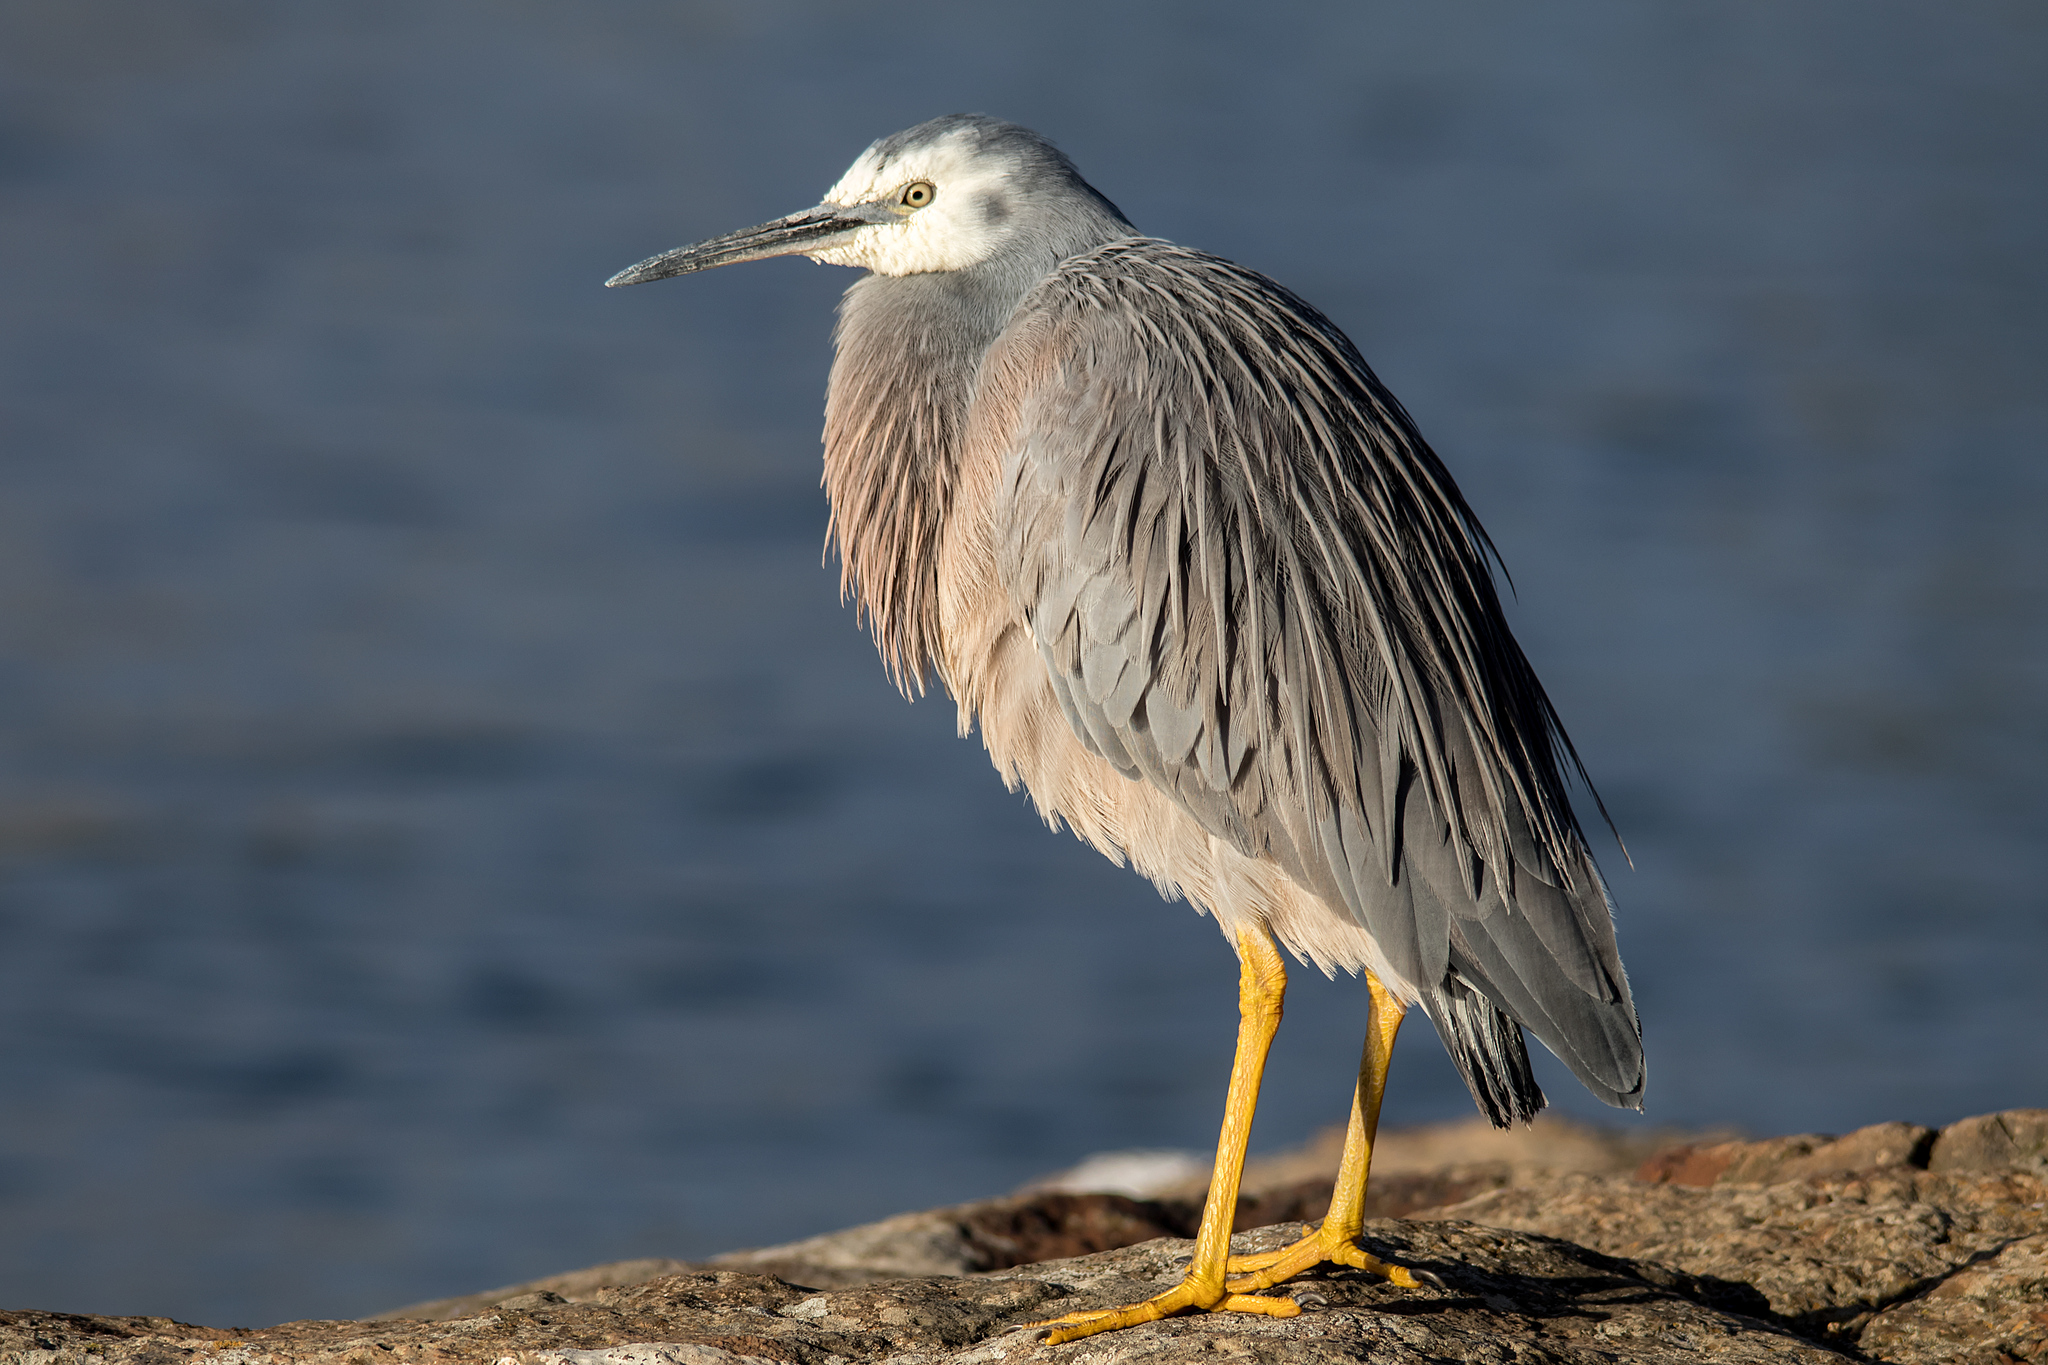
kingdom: Animalia
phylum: Chordata
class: Aves
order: Pelecaniformes
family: Ardeidae
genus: Egretta
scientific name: Egretta novaehollandiae
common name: White-faced heron
